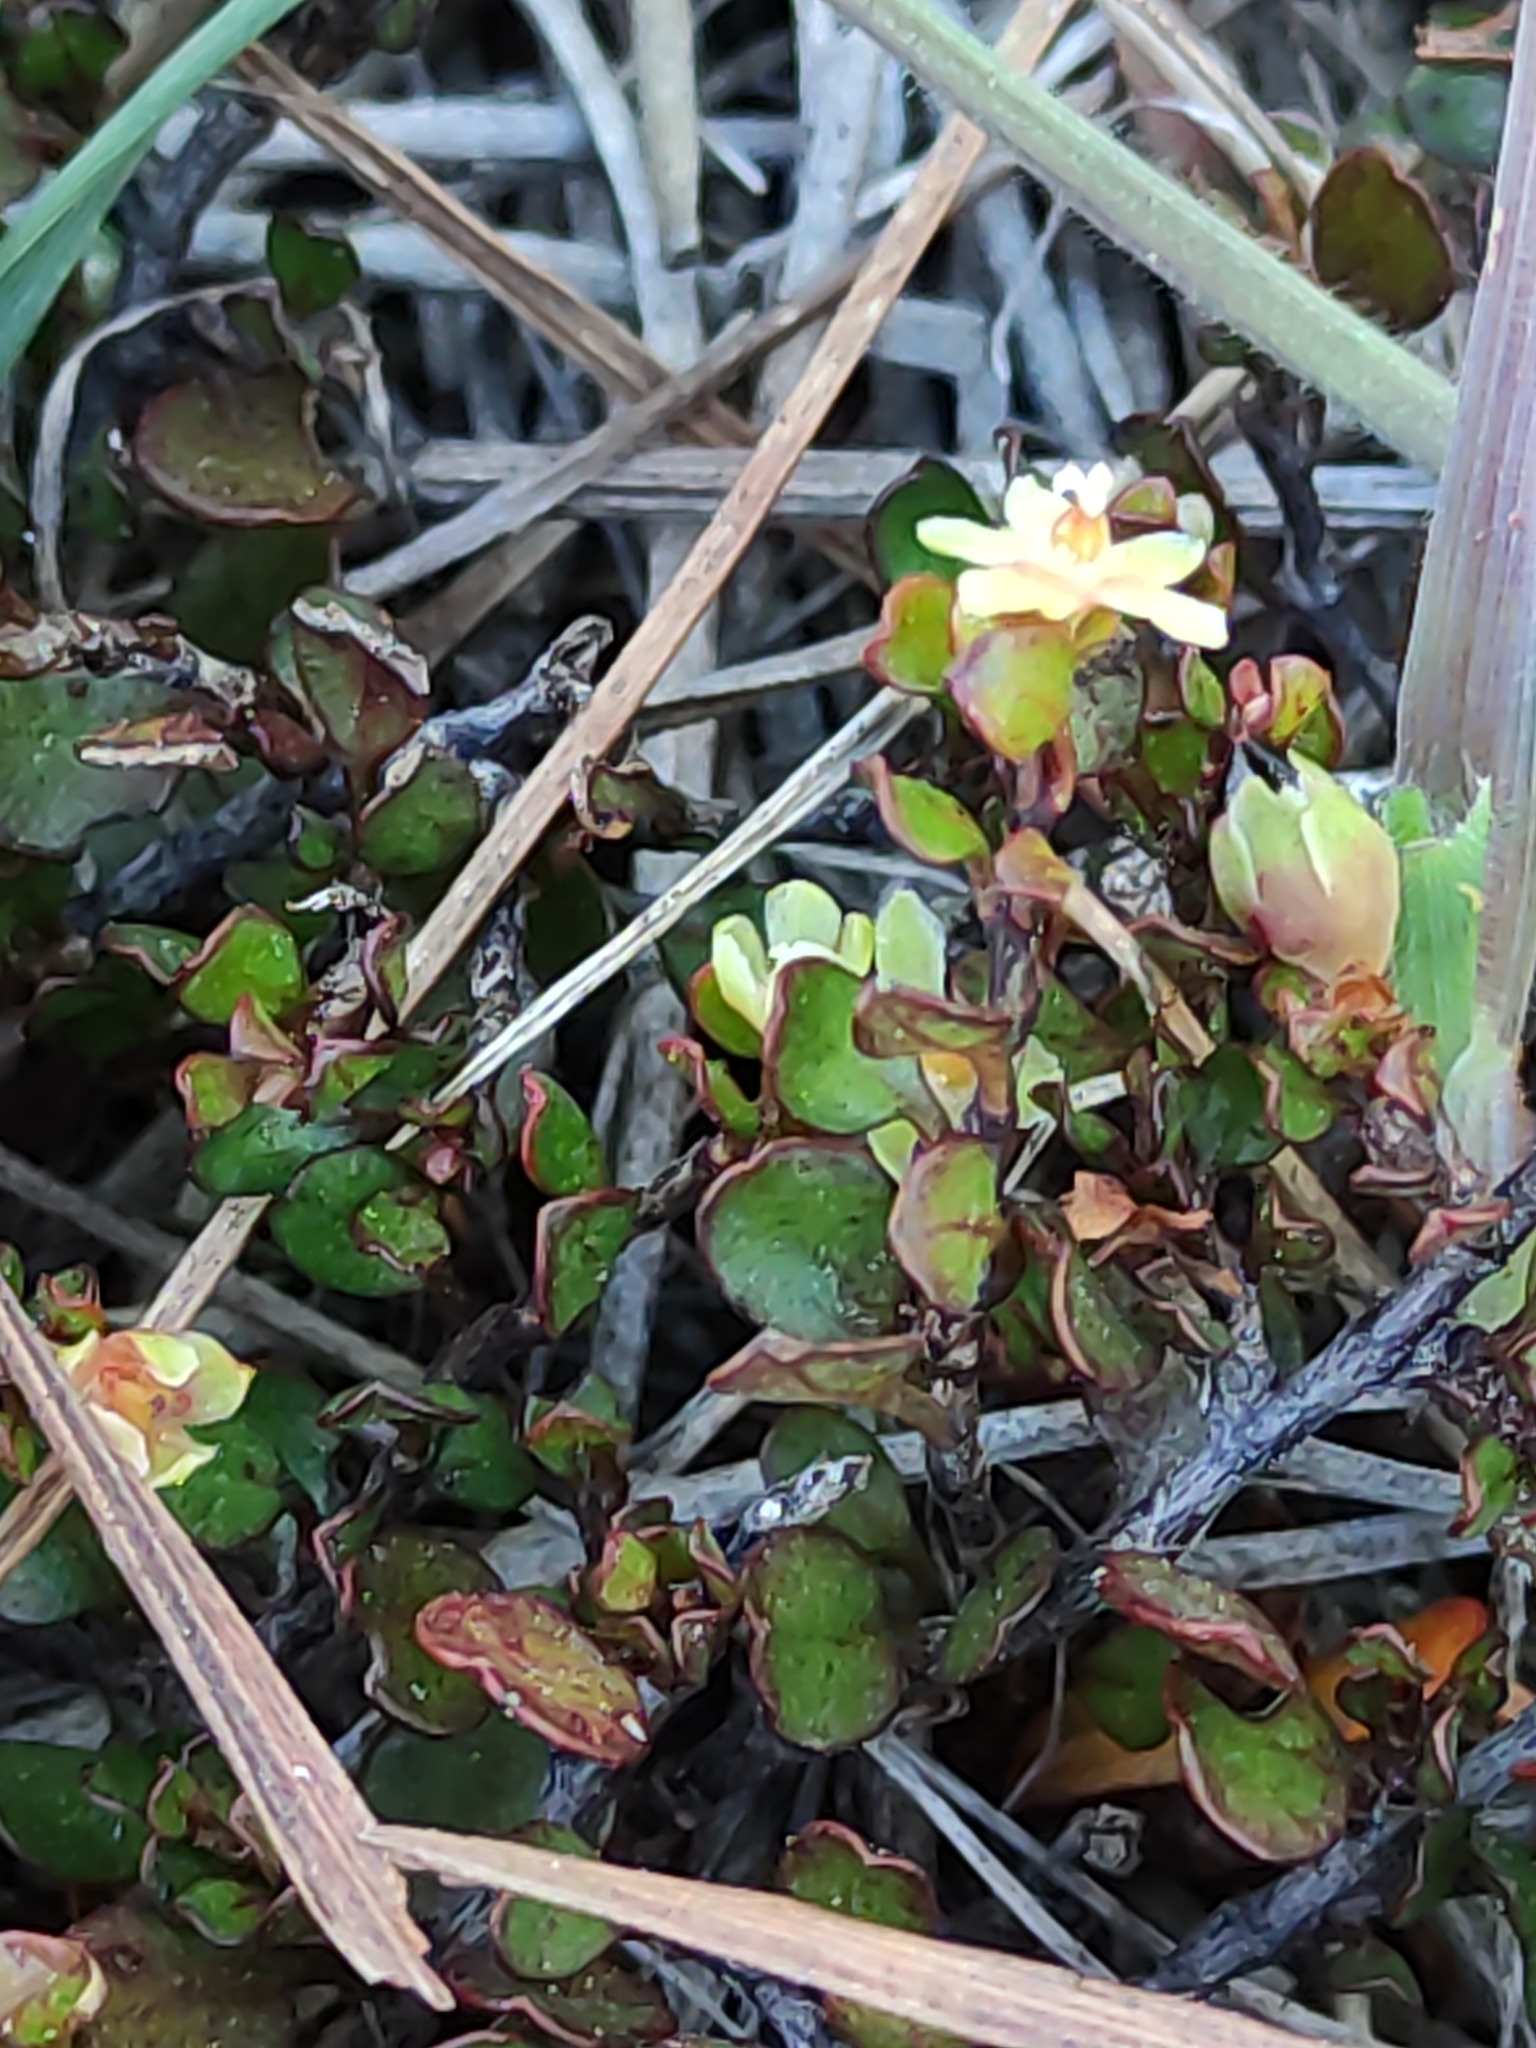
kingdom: Plantae
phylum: Tracheophyta
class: Magnoliopsida
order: Caryophyllales
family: Polygonaceae
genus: Muehlenbeckia
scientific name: Muehlenbeckia axillaris
